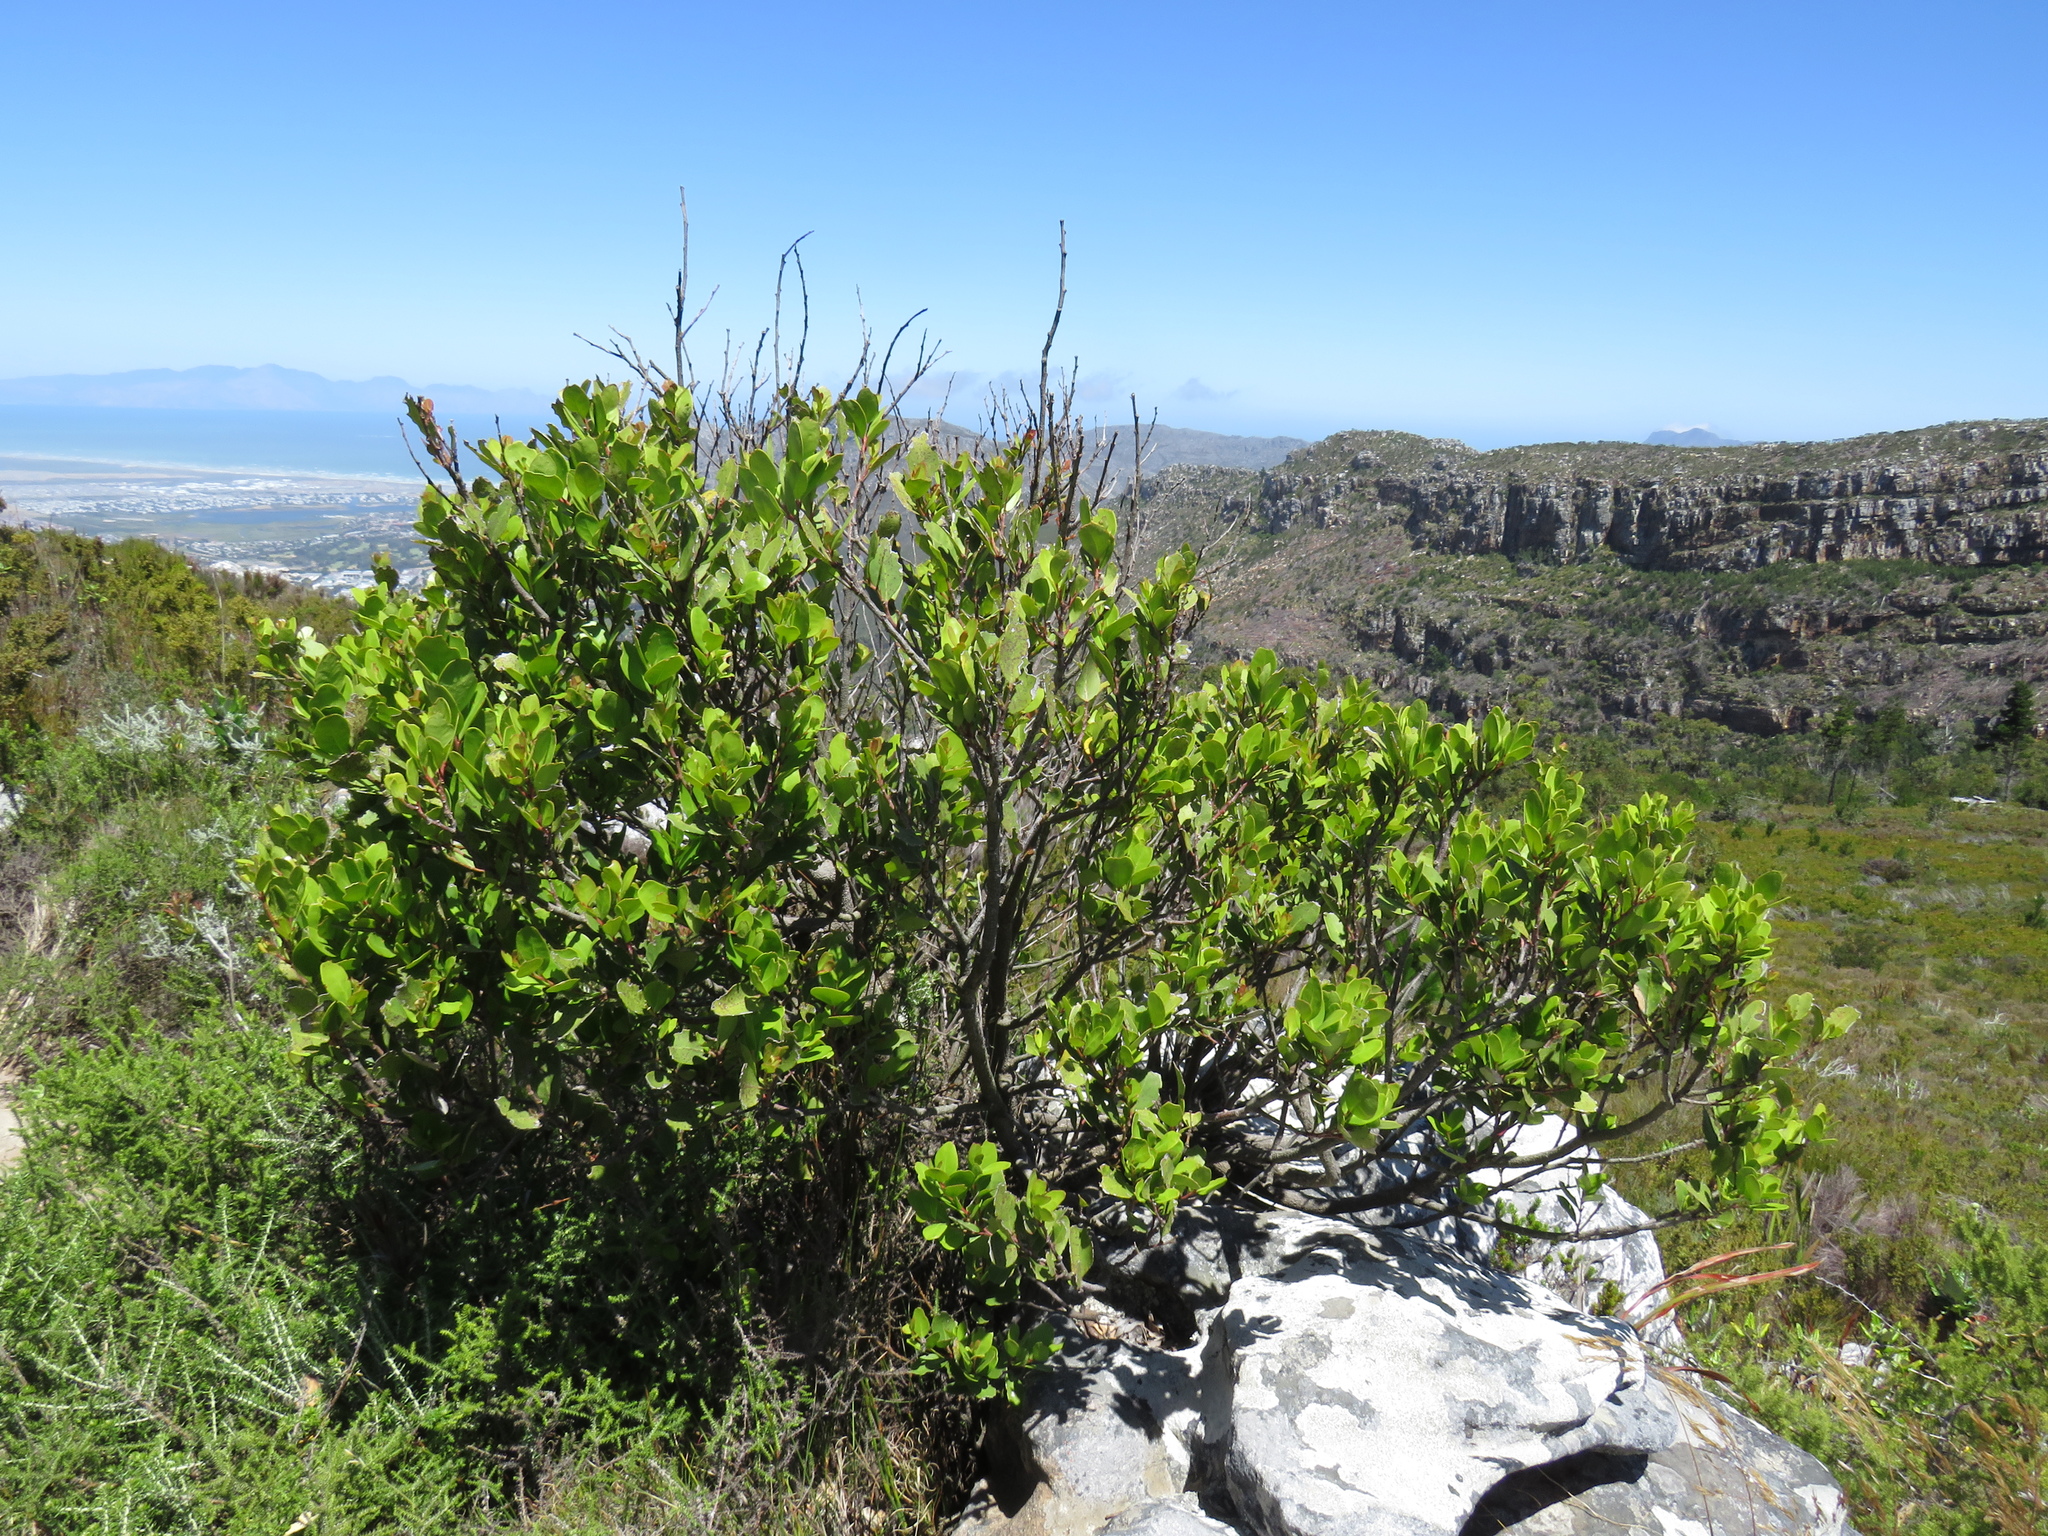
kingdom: Plantae
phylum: Tracheophyta
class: Magnoliopsida
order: Celastrales
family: Celastraceae
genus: Gymnosporia
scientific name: Gymnosporia laurina
